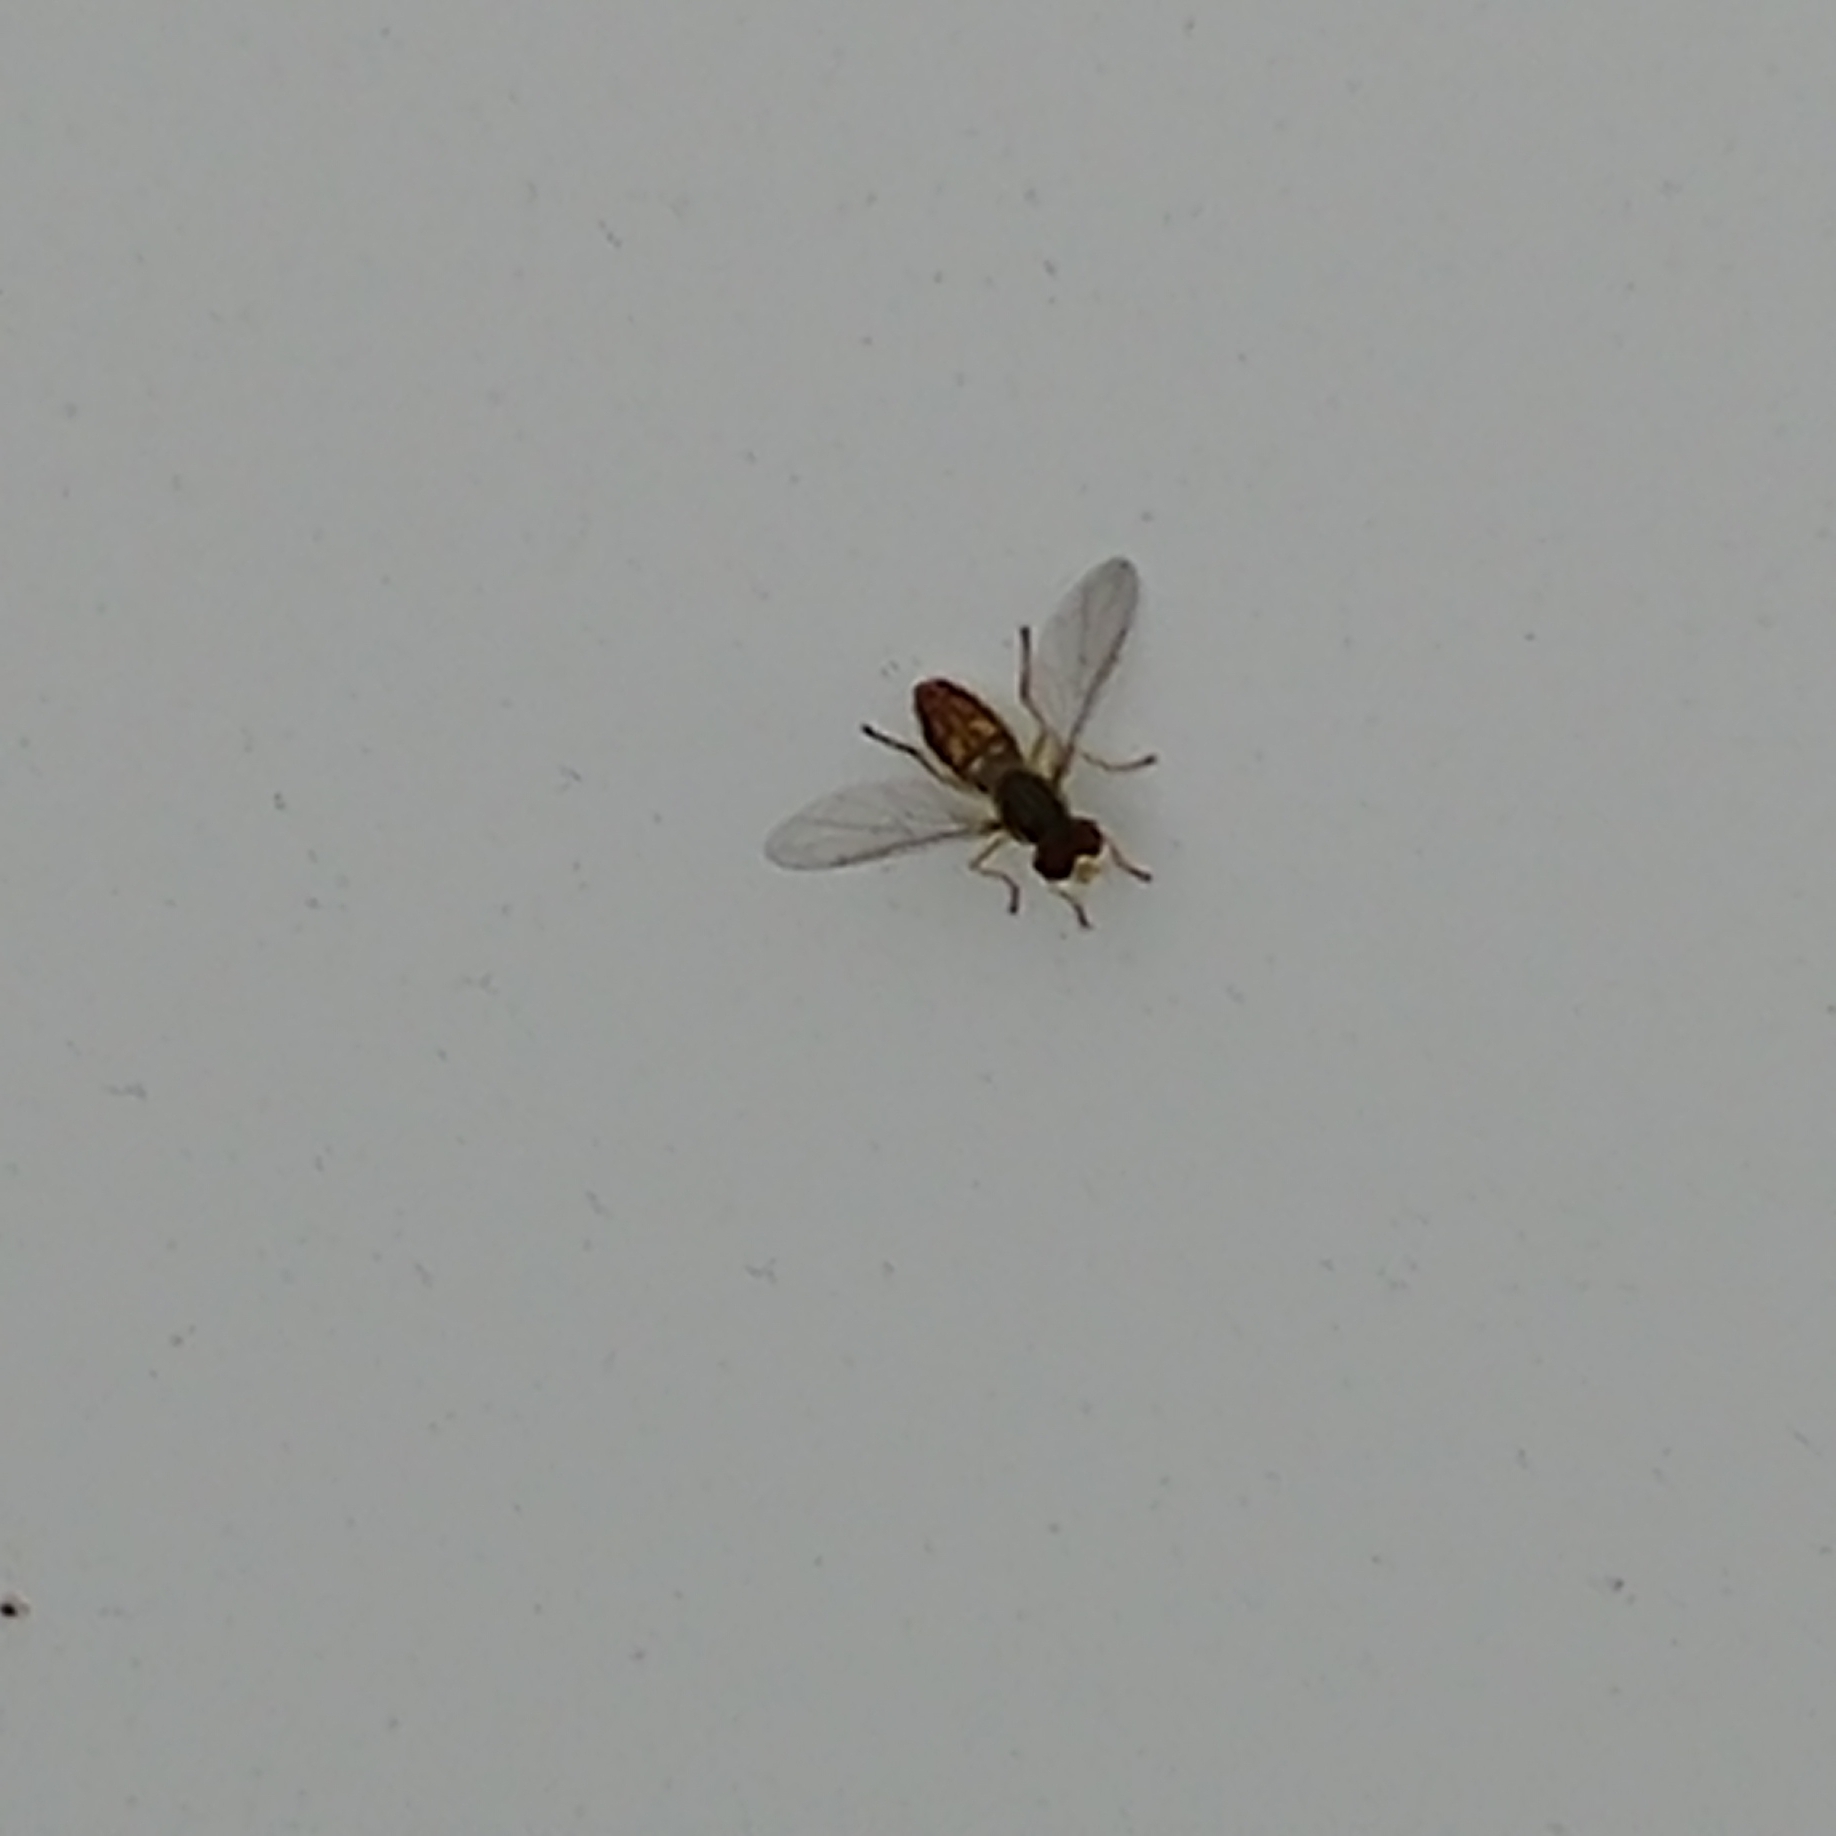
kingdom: Animalia
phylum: Arthropoda
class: Insecta
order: Diptera
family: Syrphidae
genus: Toxomerus
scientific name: Toxomerus marginatus
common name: Syrphid fly
